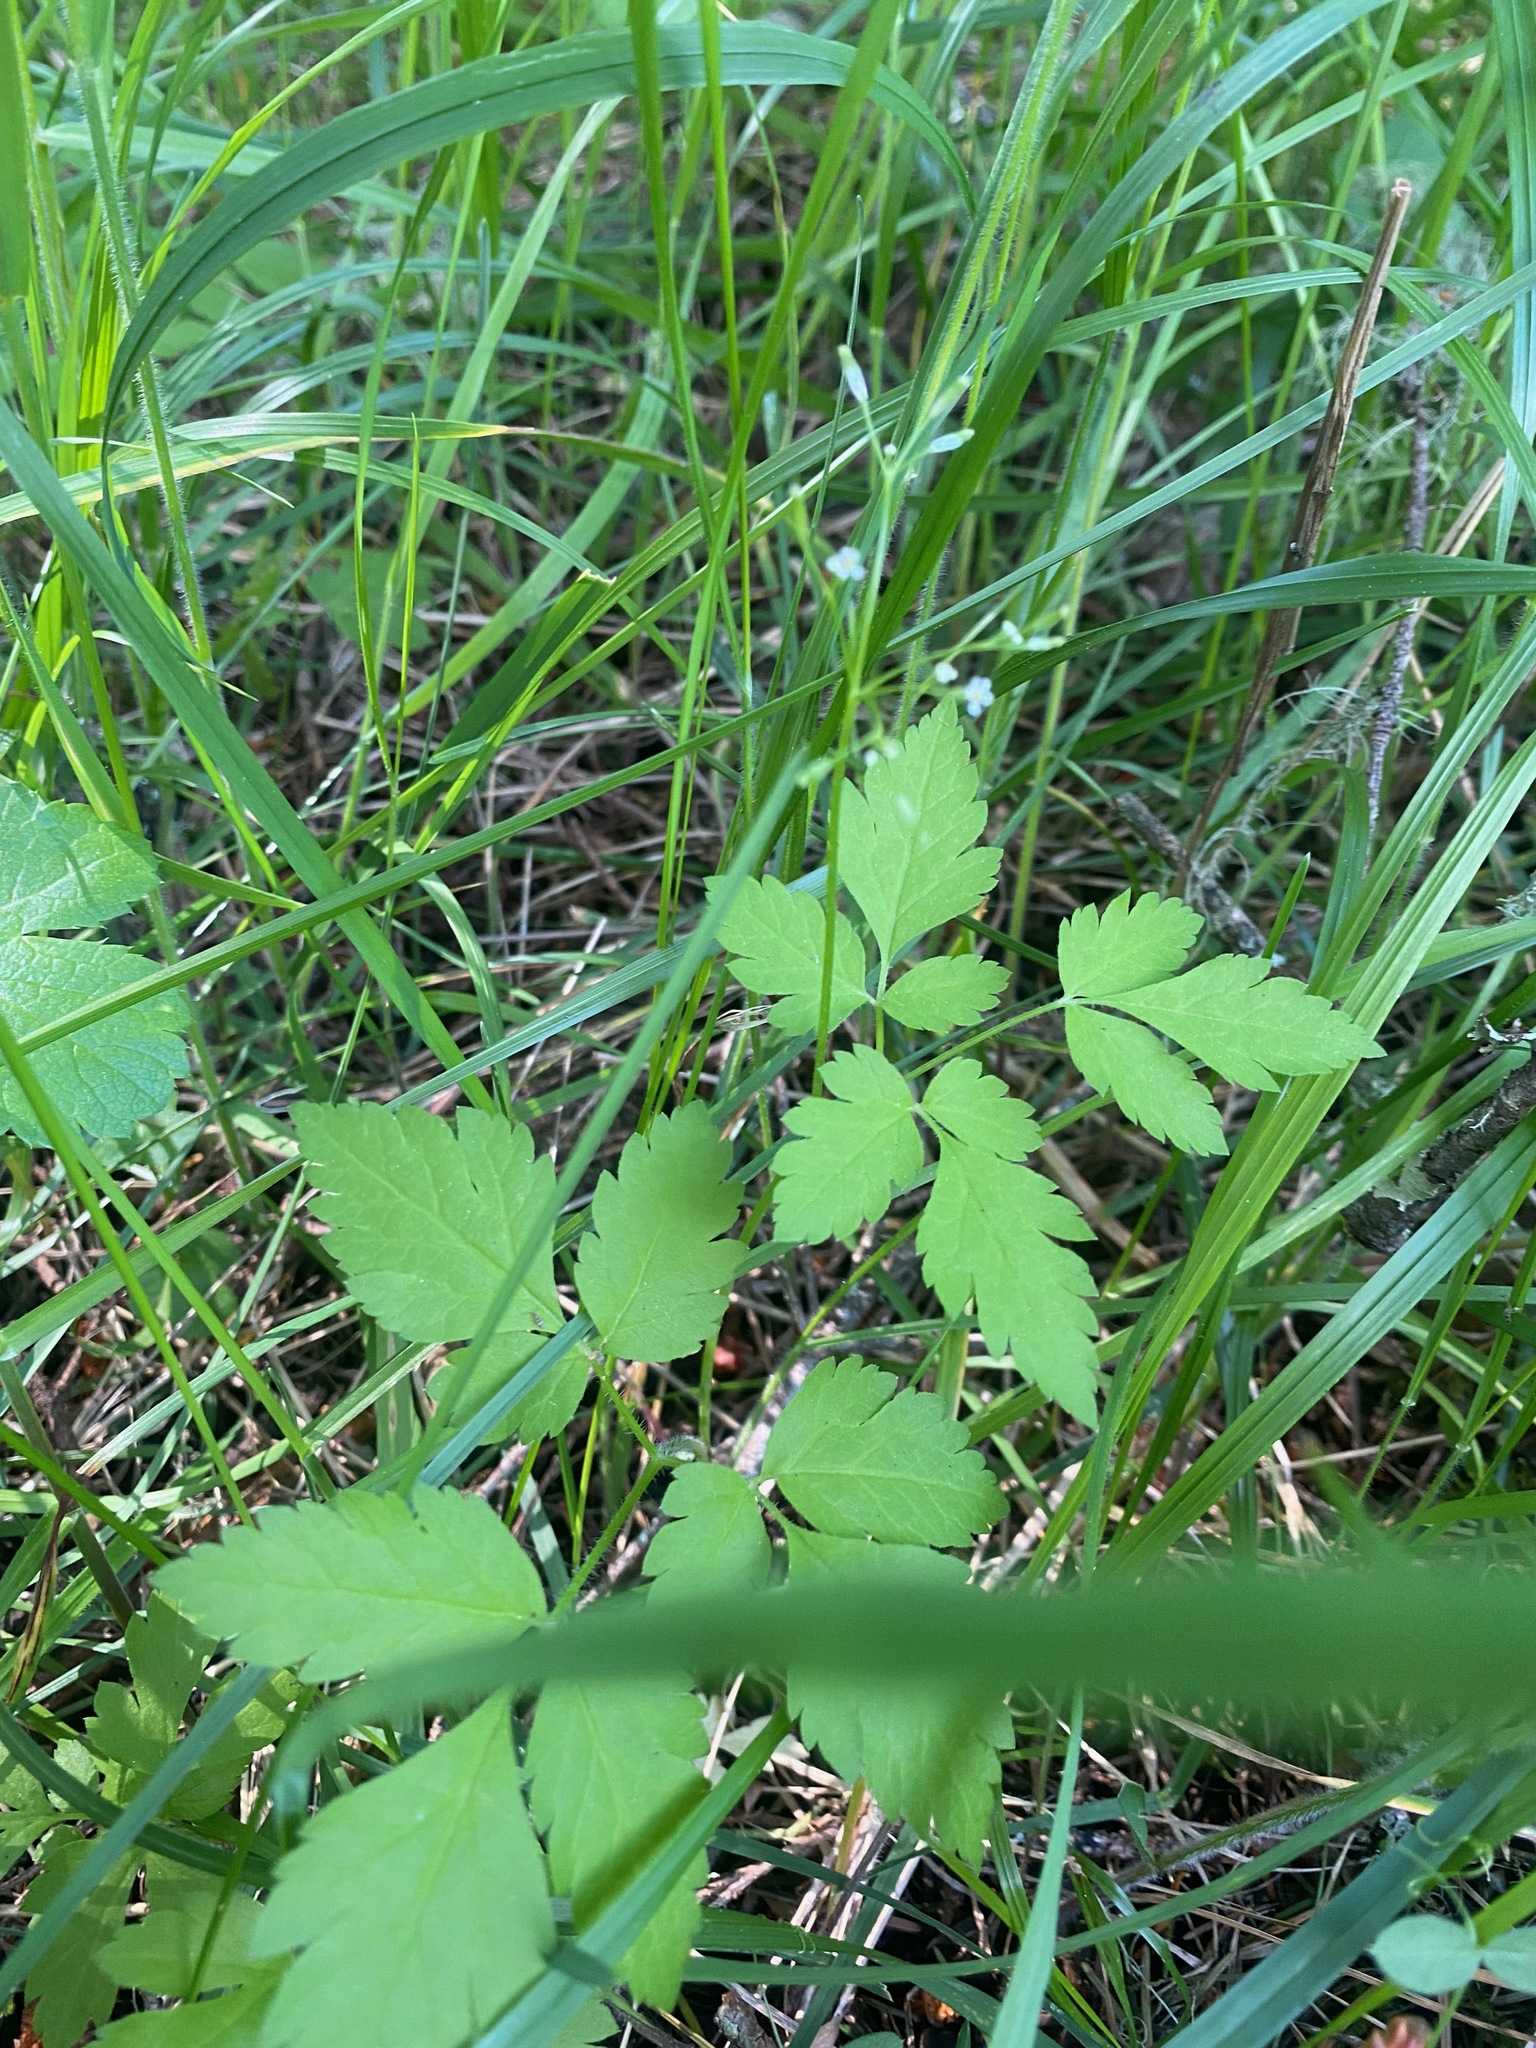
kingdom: Plantae
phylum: Tracheophyta
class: Magnoliopsida
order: Apiales
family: Apiaceae
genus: Osmorhiza
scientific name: Osmorhiza berteroi
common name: Mountain sweet cicely
